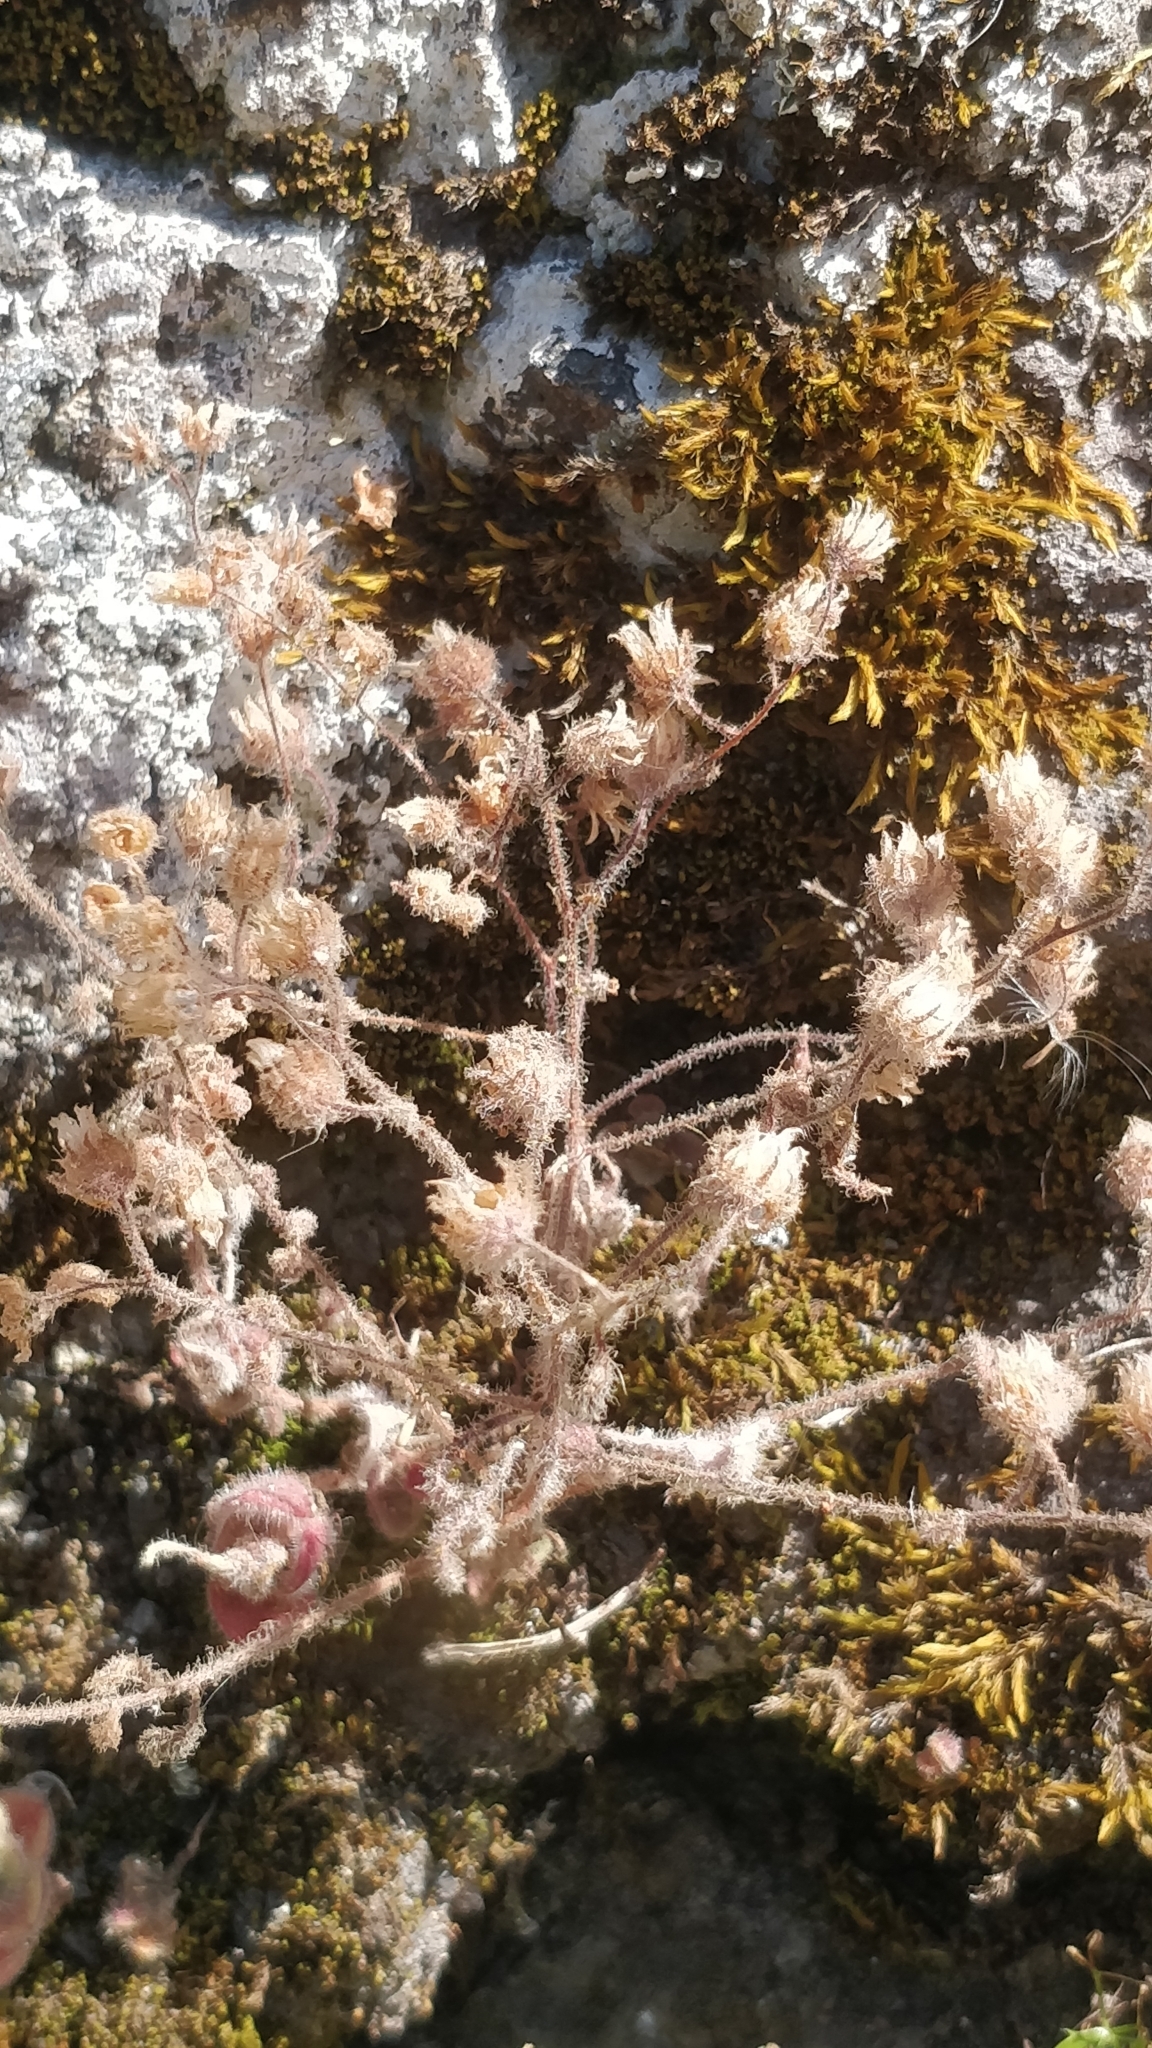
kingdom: Plantae
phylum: Tracheophyta
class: Magnoliopsida
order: Saxifragales
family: Crassulaceae
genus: Aichryson
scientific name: Aichryson villosum
